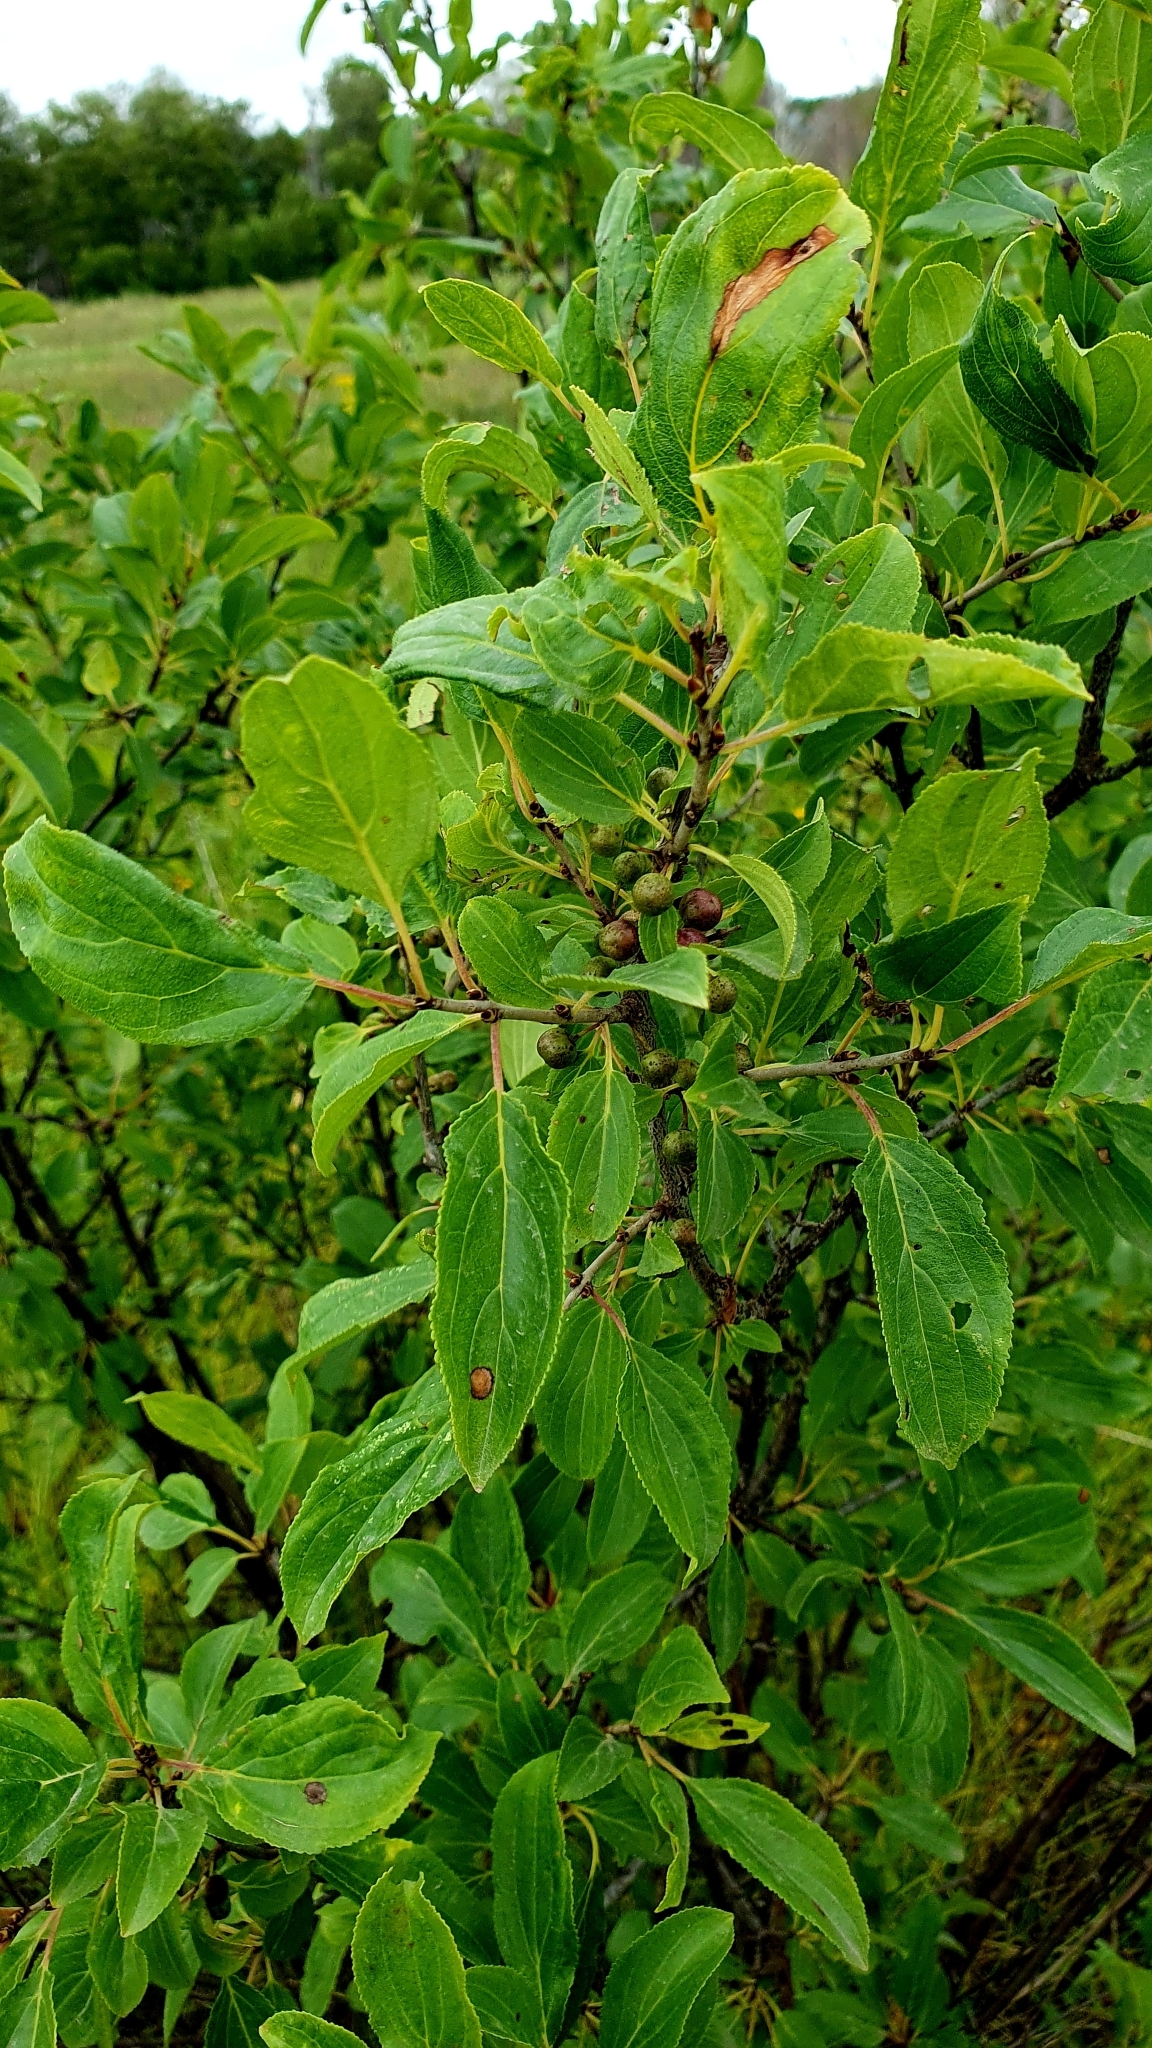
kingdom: Plantae
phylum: Tracheophyta
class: Magnoliopsida
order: Rosales
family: Rhamnaceae
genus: Rhamnus
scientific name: Rhamnus cathartica
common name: Common buckthorn
